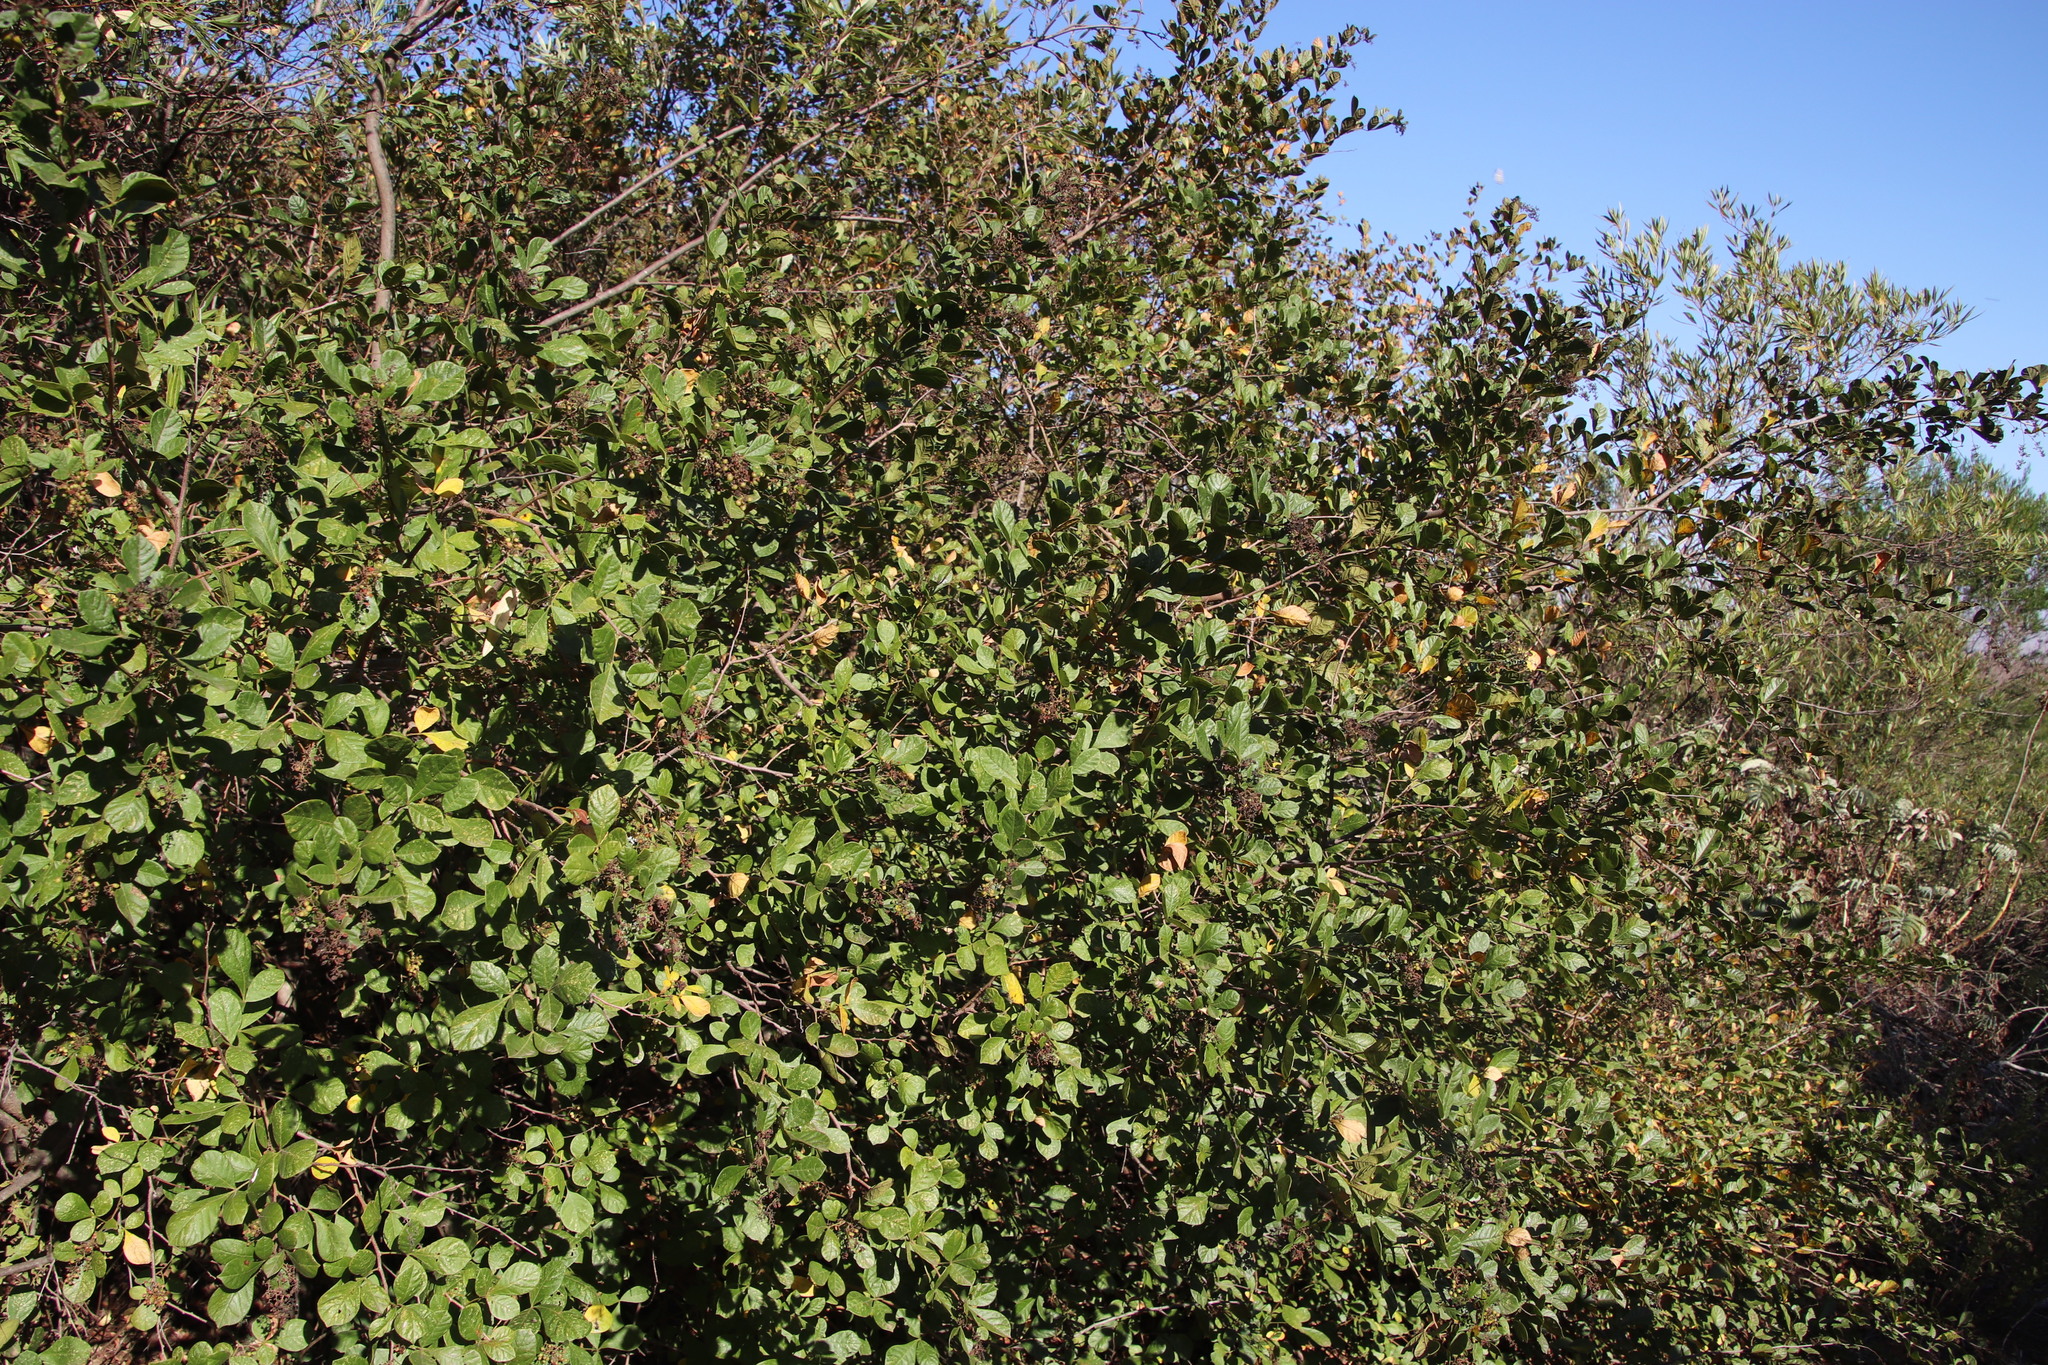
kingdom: Plantae
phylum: Tracheophyta
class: Magnoliopsida
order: Sapindales
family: Anacardiaceae
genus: Searsia
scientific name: Searsia rehmanniana
